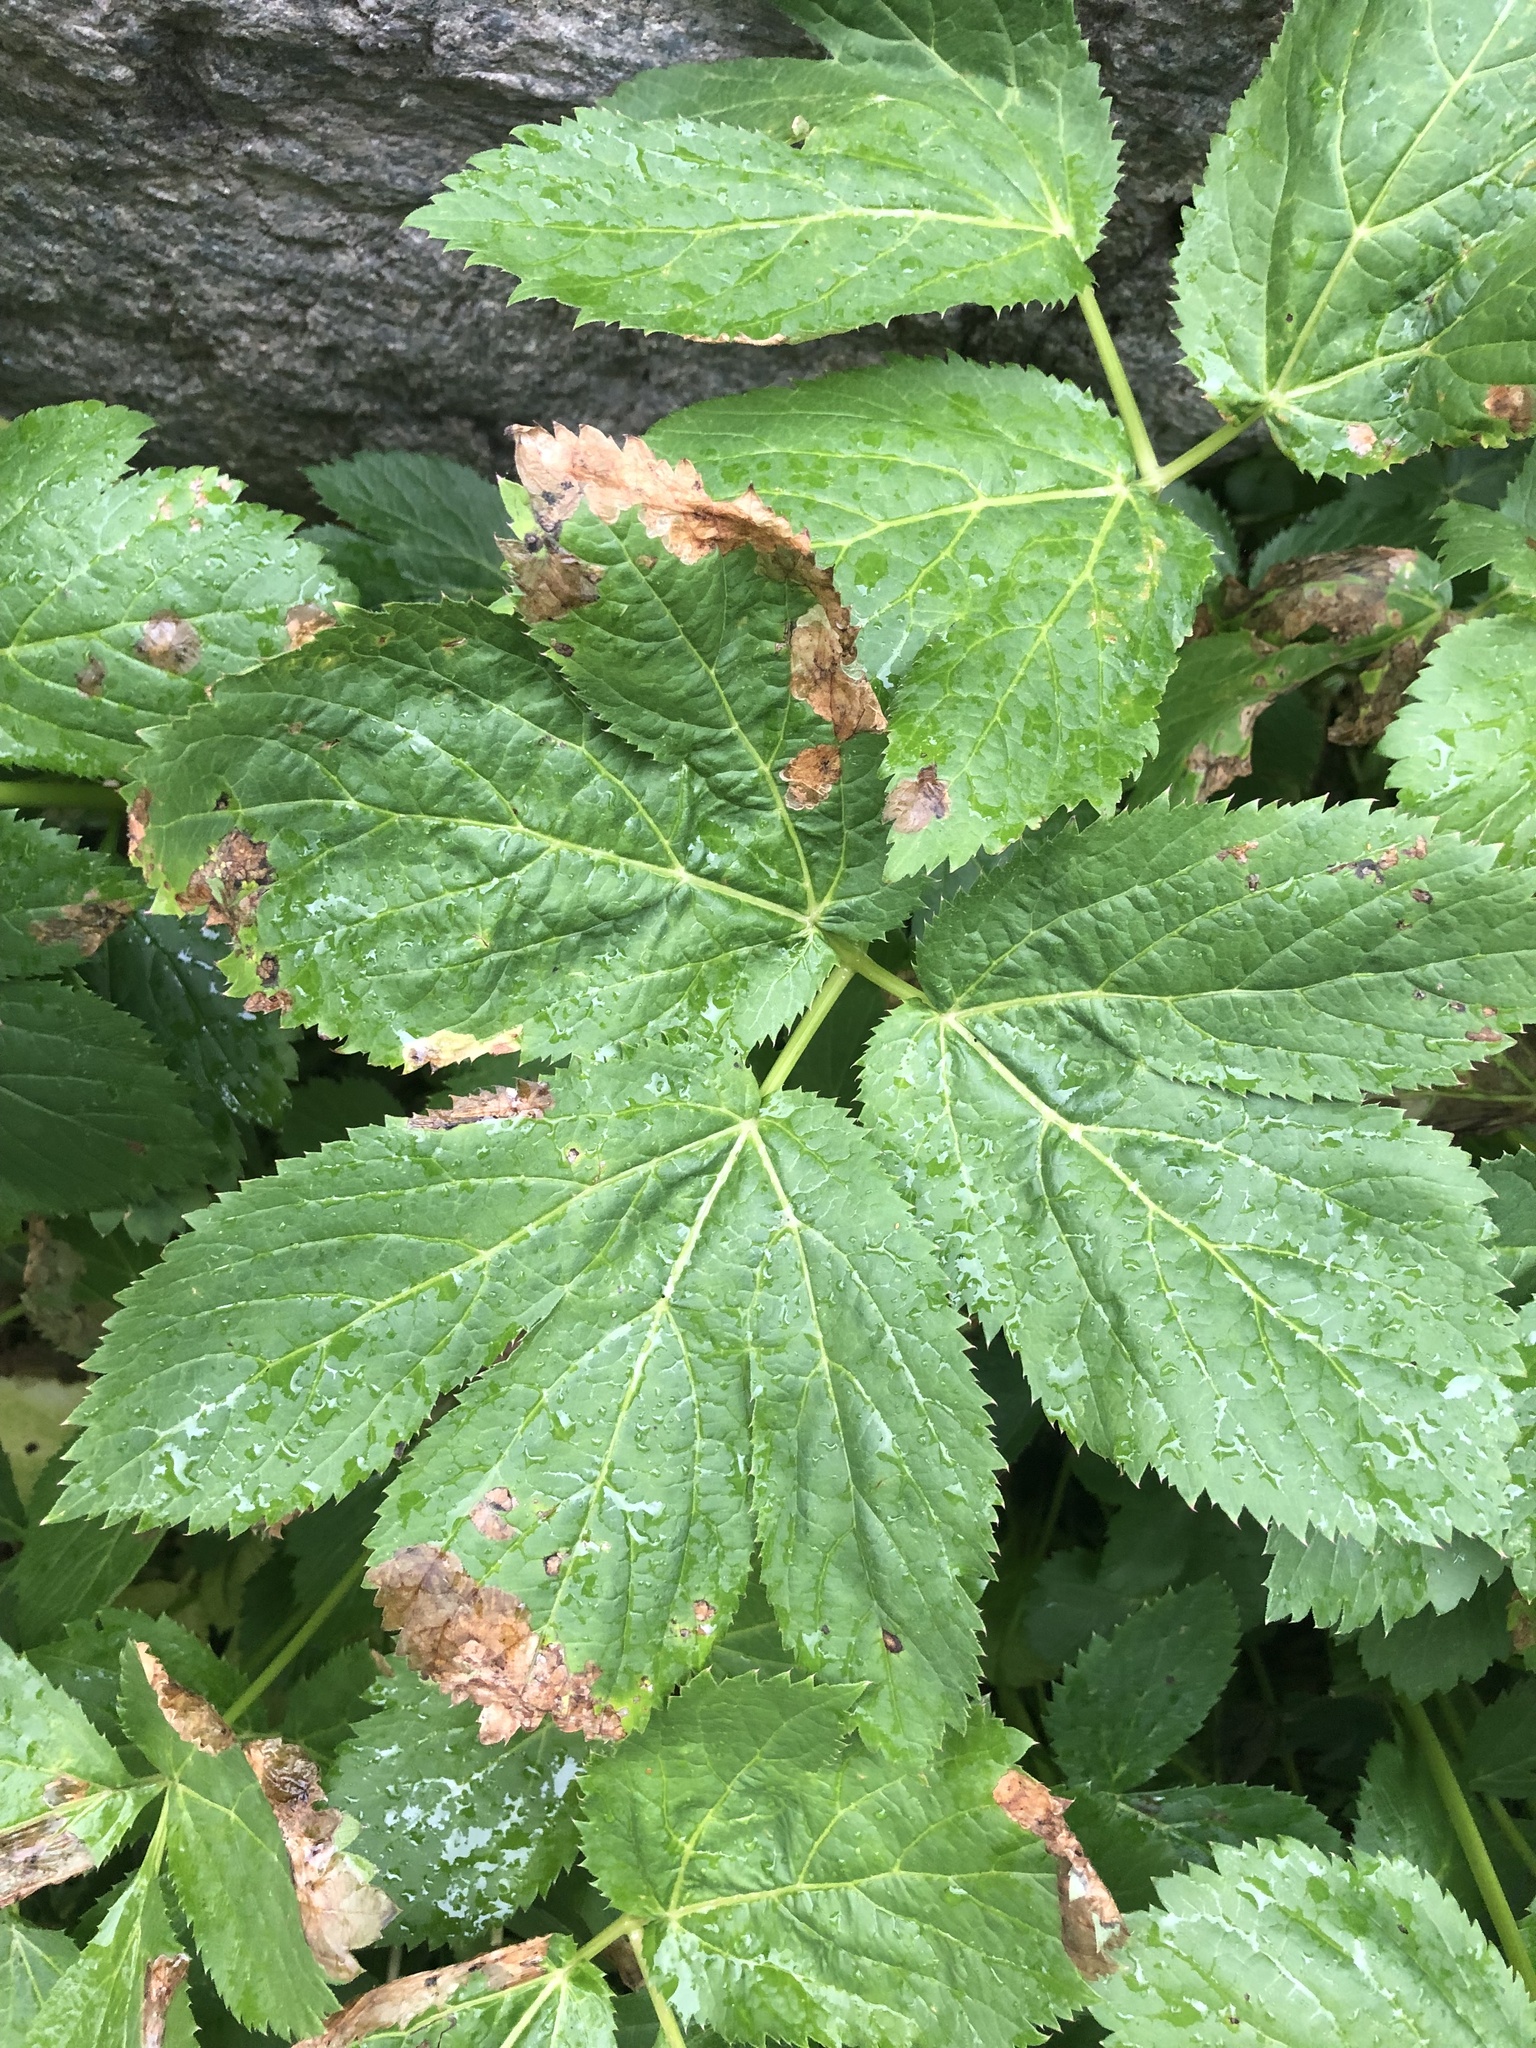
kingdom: Plantae
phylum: Tracheophyta
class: Magnoliopsida
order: Apiales
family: Apiaceae
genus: Imperatoria
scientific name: Imperatoria ostruthium
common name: Masterwort
